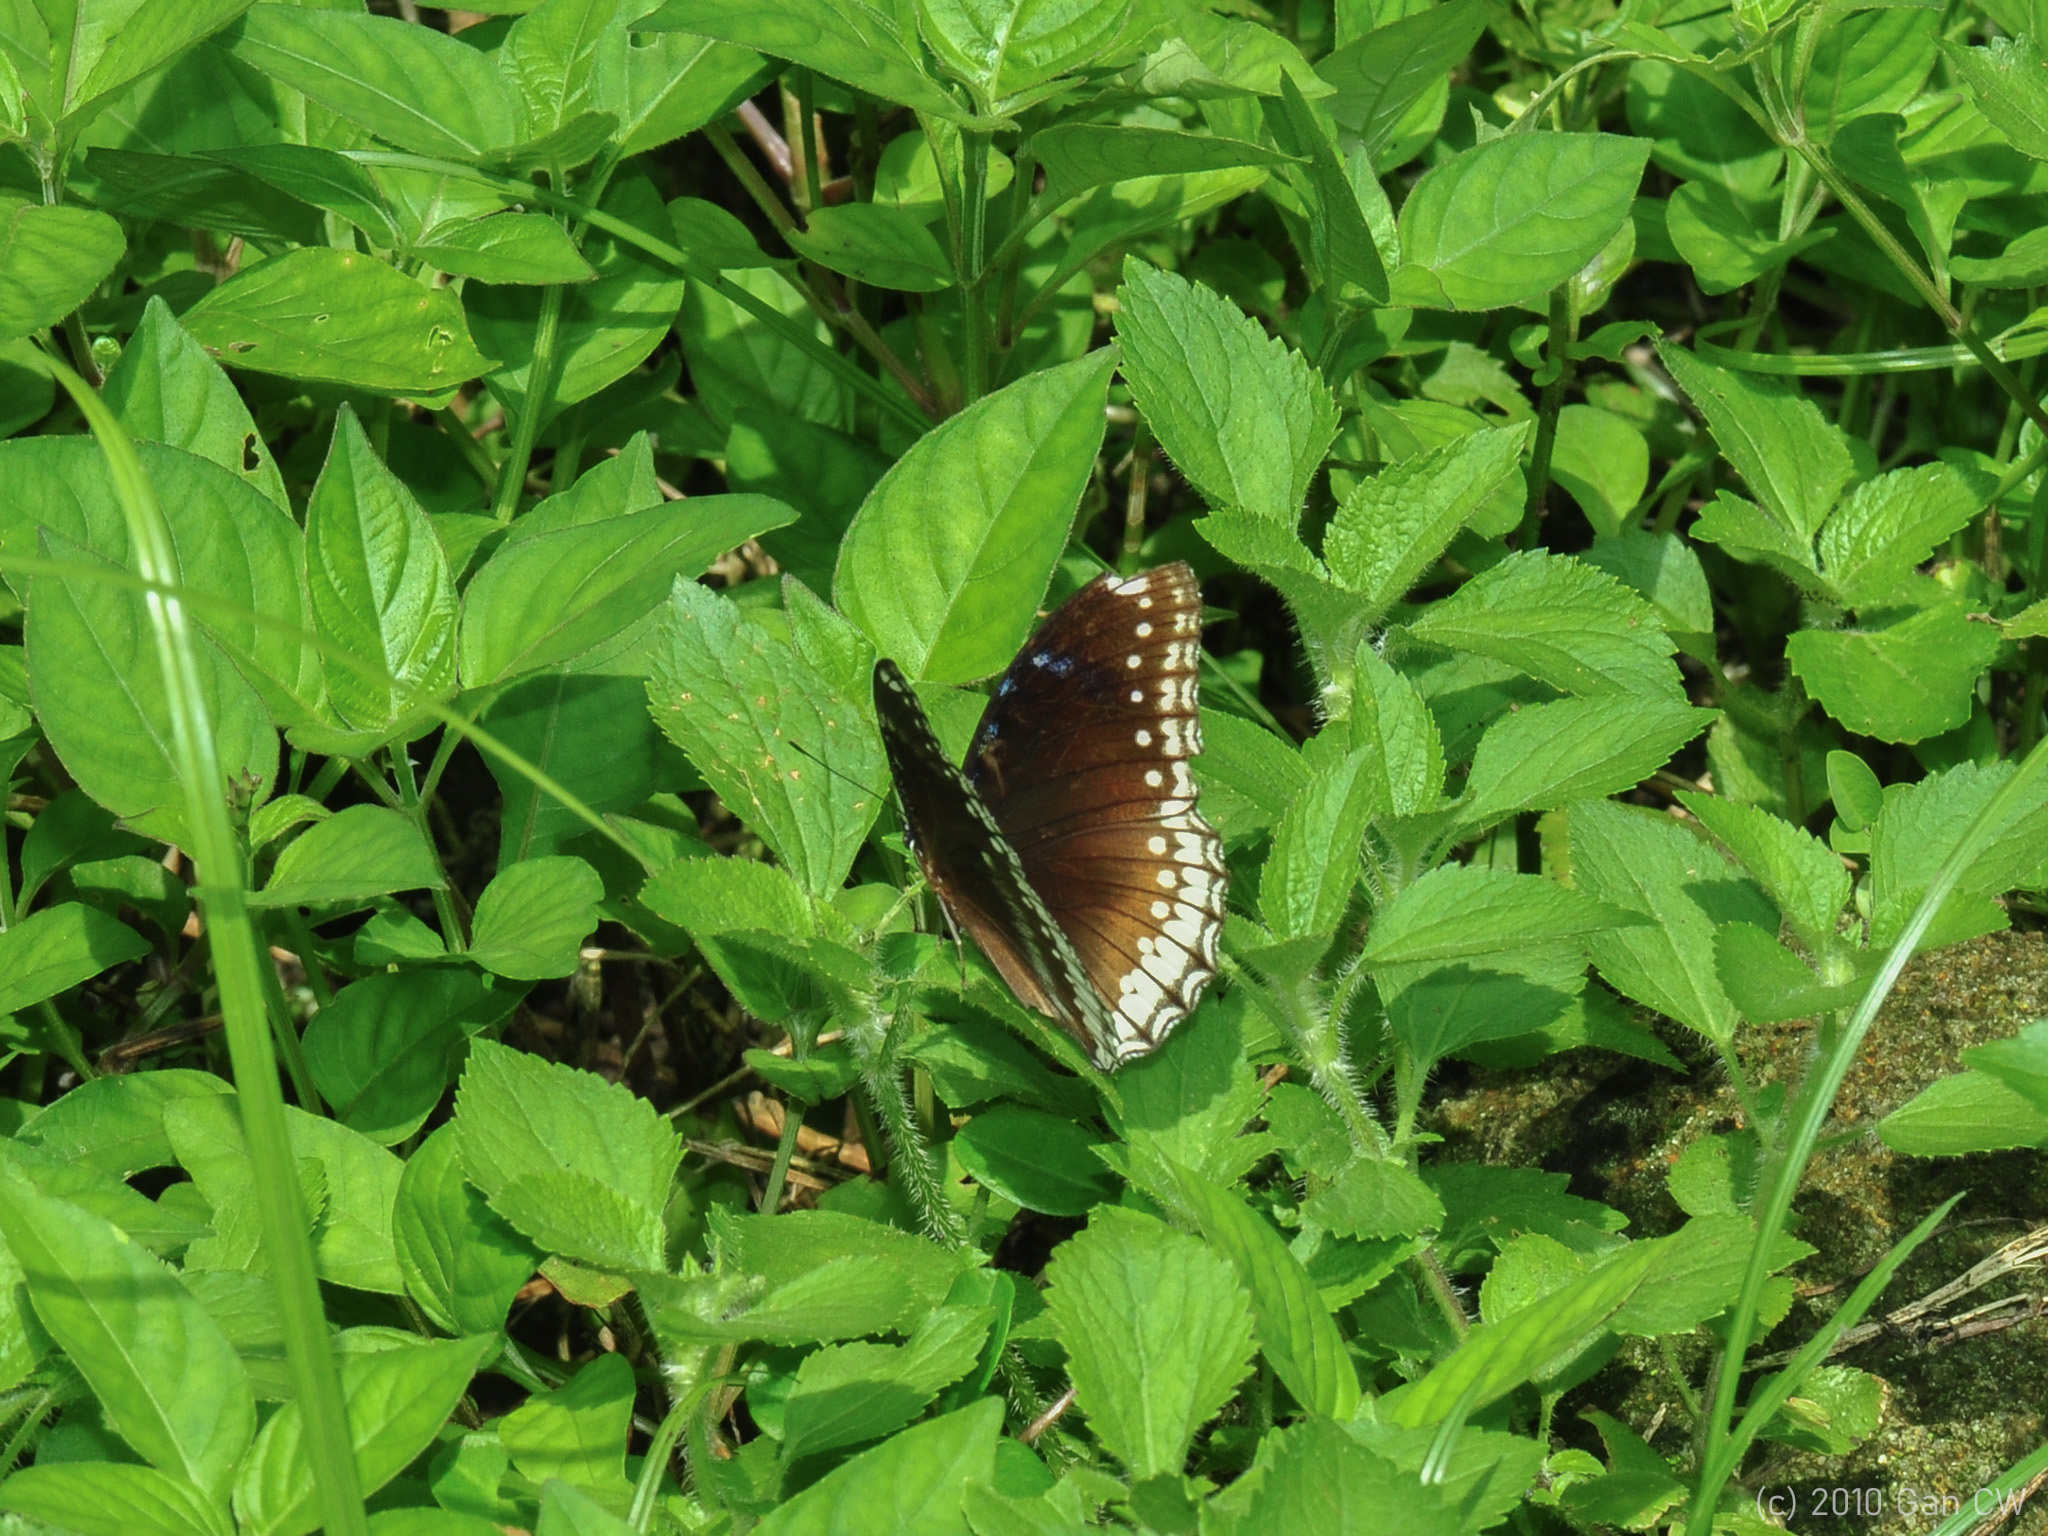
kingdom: Animalia
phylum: Arthropoda
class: Insecta
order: Lepidoptera
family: Nymphalidae
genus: Hypolimnas
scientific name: Hypolimnas bolina
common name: Great eggfly
